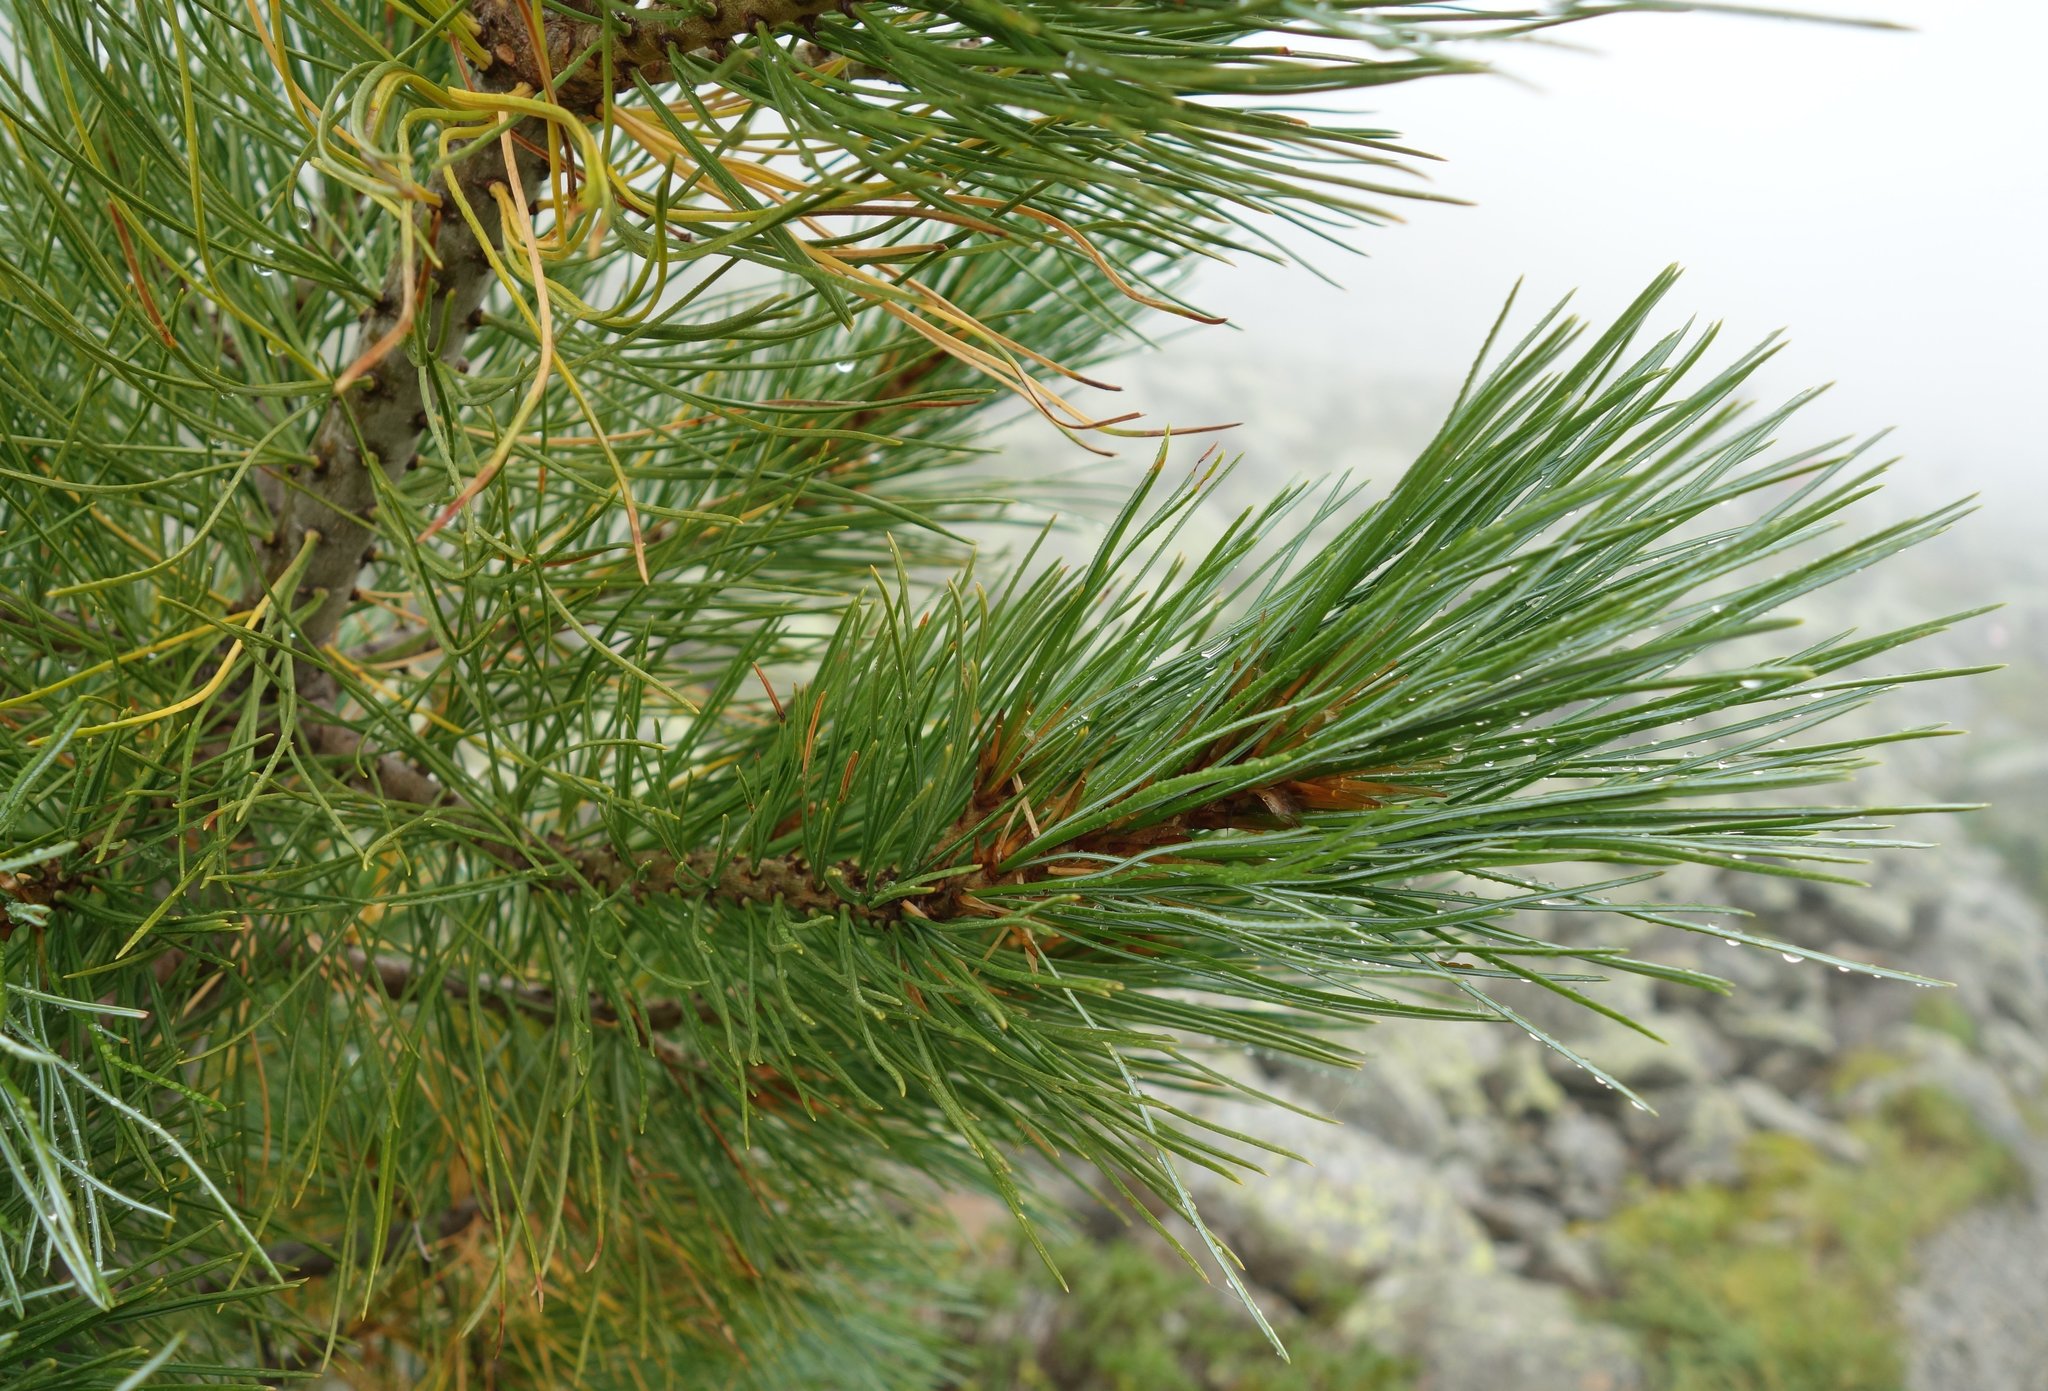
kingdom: Plantae
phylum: Tracheophyta
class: Pinopsida
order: Pinales
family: Pinaceae
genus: Pinus
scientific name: Pinus cembra
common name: Arolla pine
